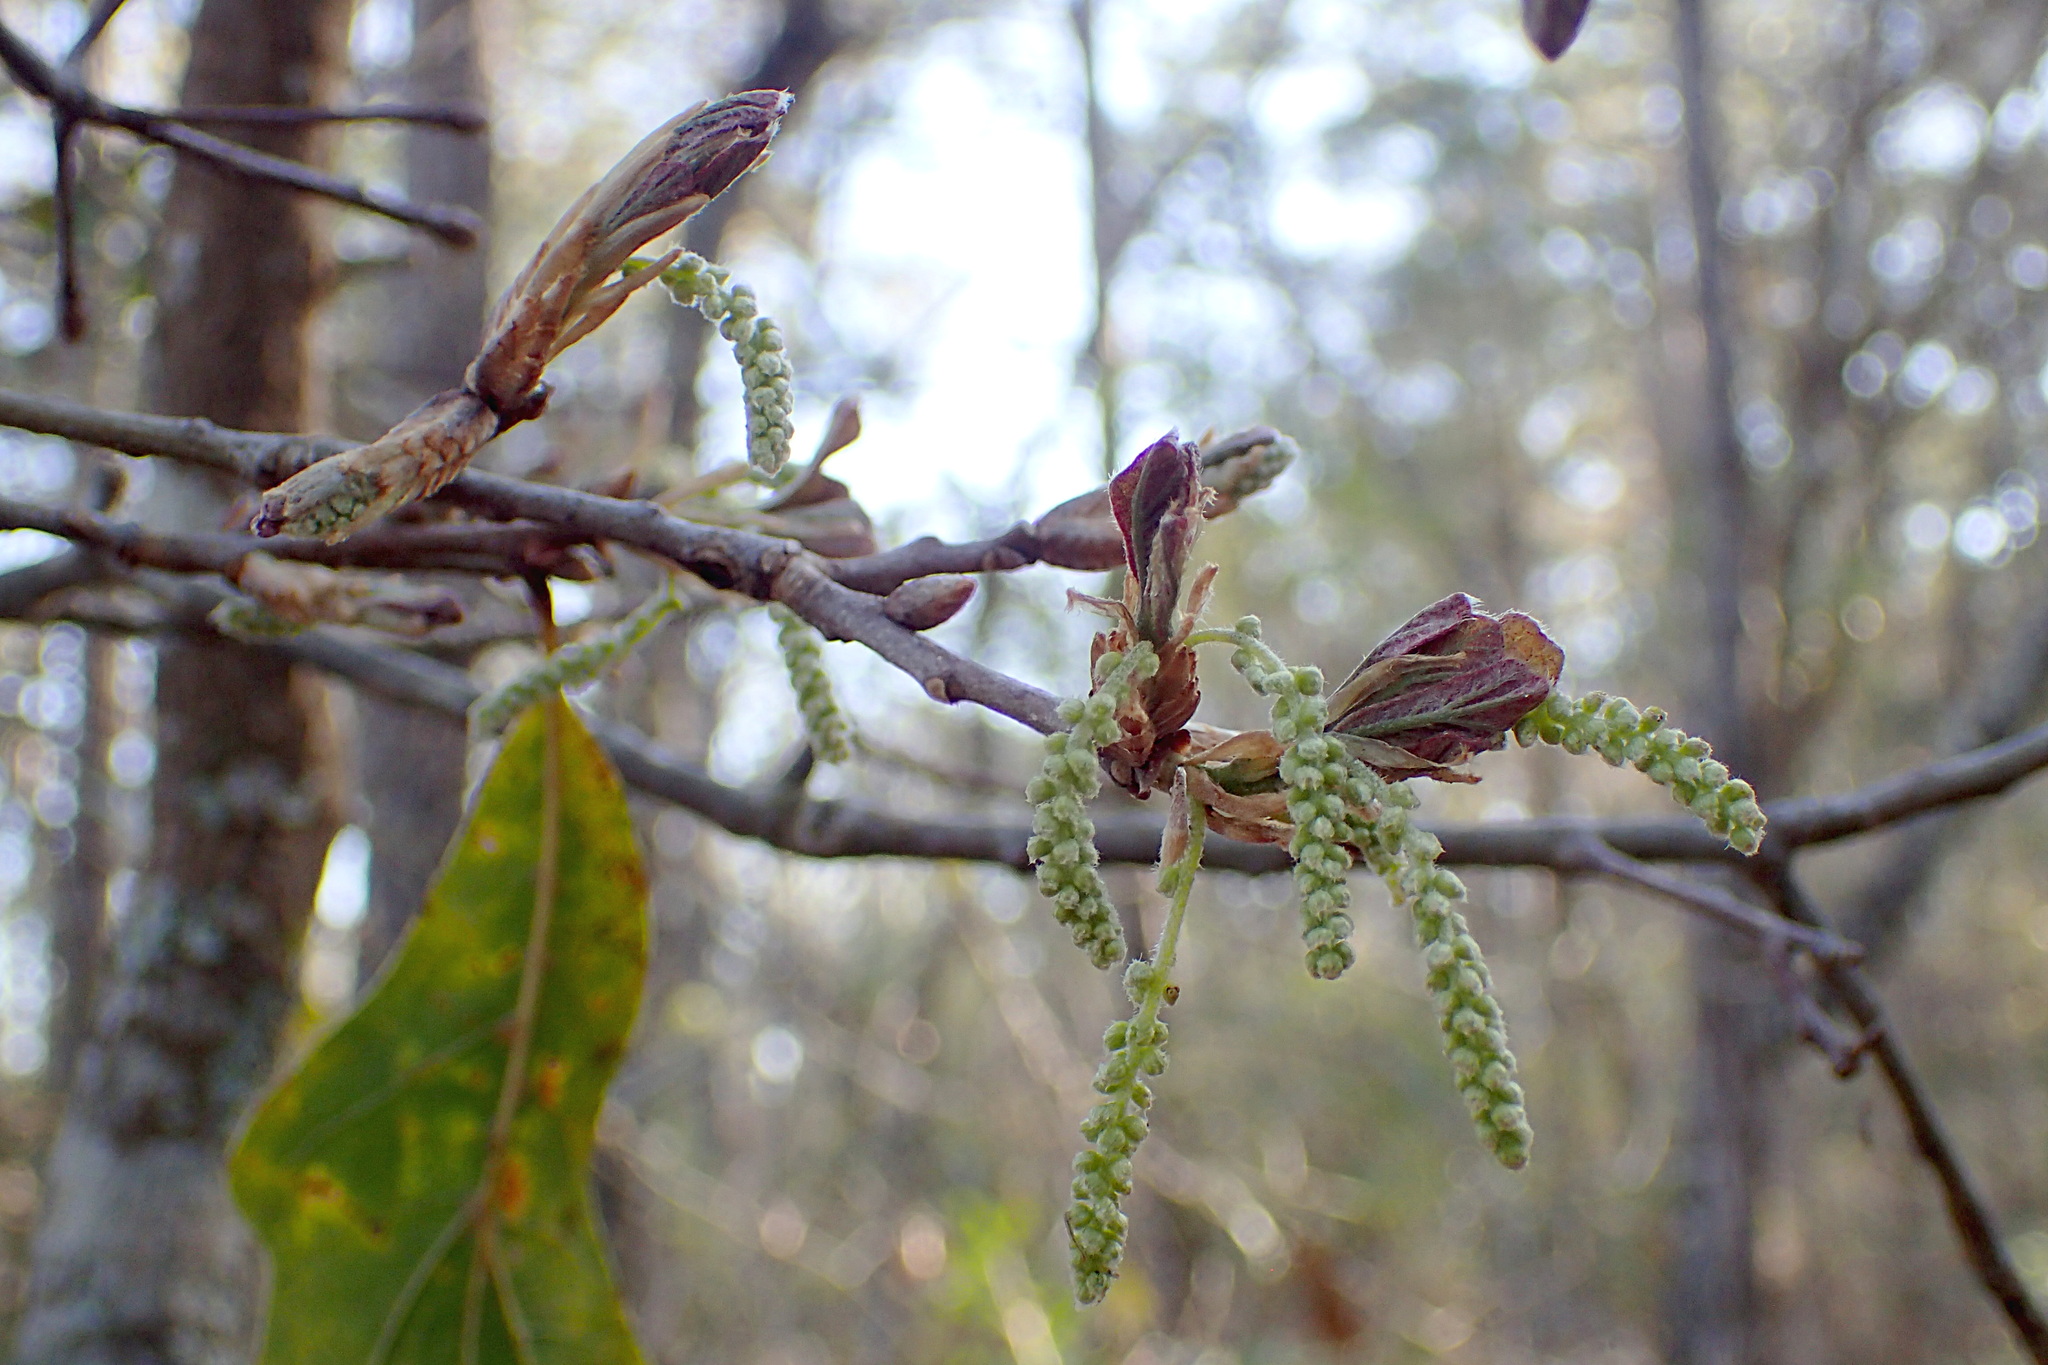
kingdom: Plantae
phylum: Tracheophyta
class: Magnoliopsida
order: Fagales
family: Fagaceae
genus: Quercus
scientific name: Quercus nigra
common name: Water oak
